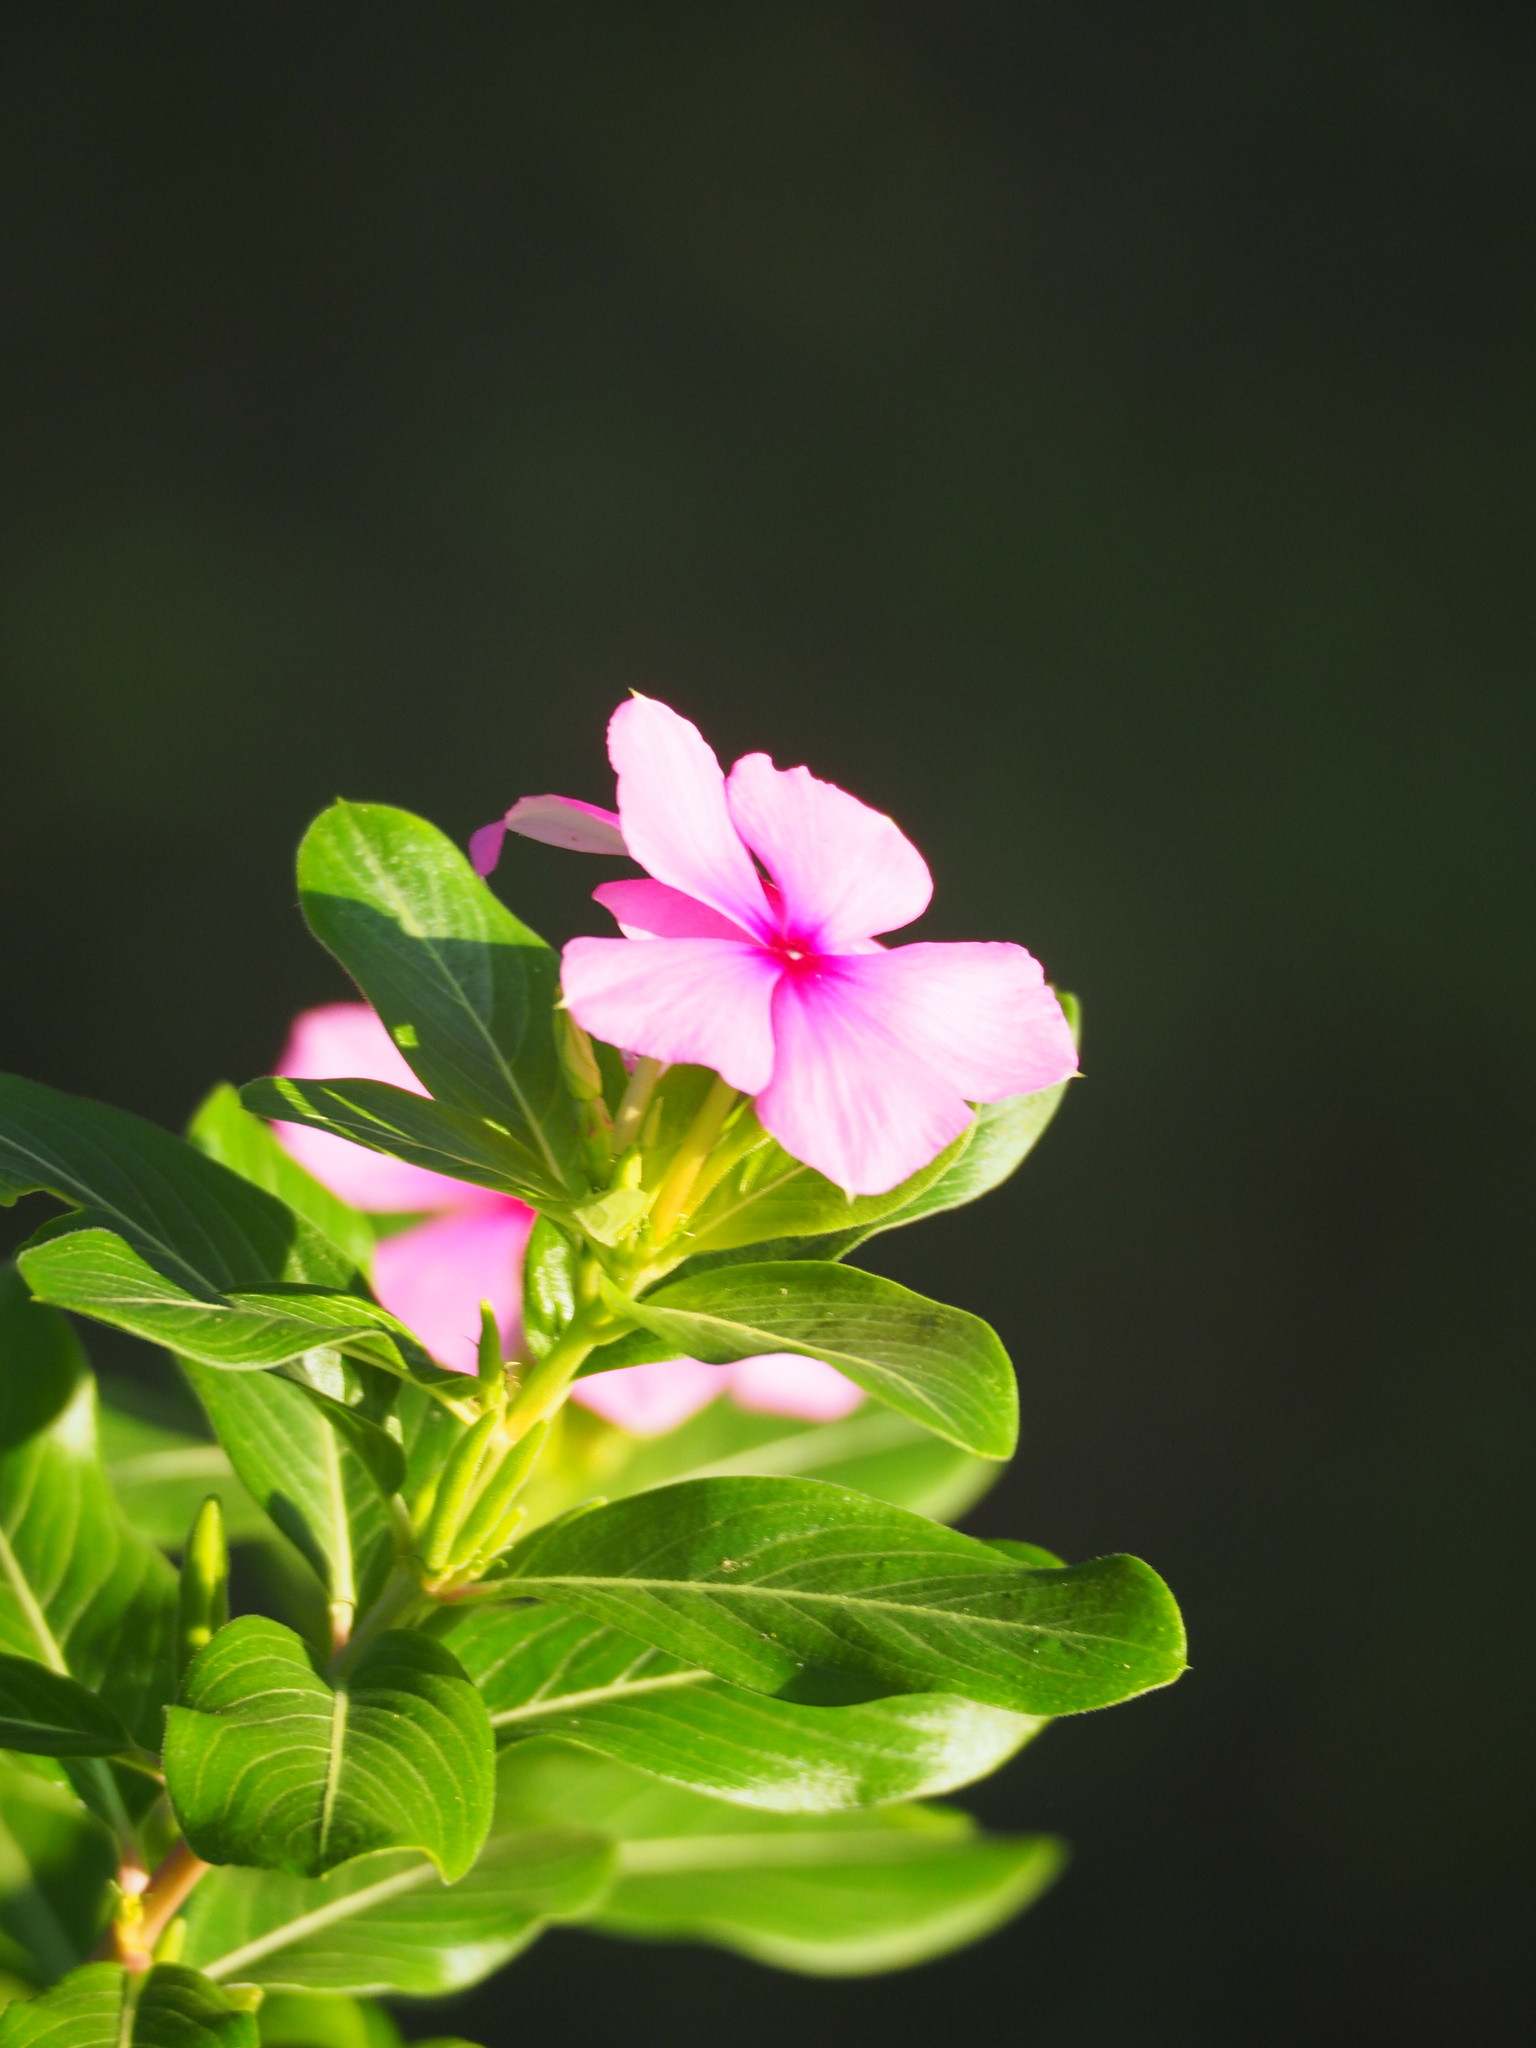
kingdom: Plantae
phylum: Tracheophyta
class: Magnoliopsida
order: Gentianales
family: Apocynaceae
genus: Catharanthus
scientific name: Catharanthus roseus
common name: Madagascar periwinkle
